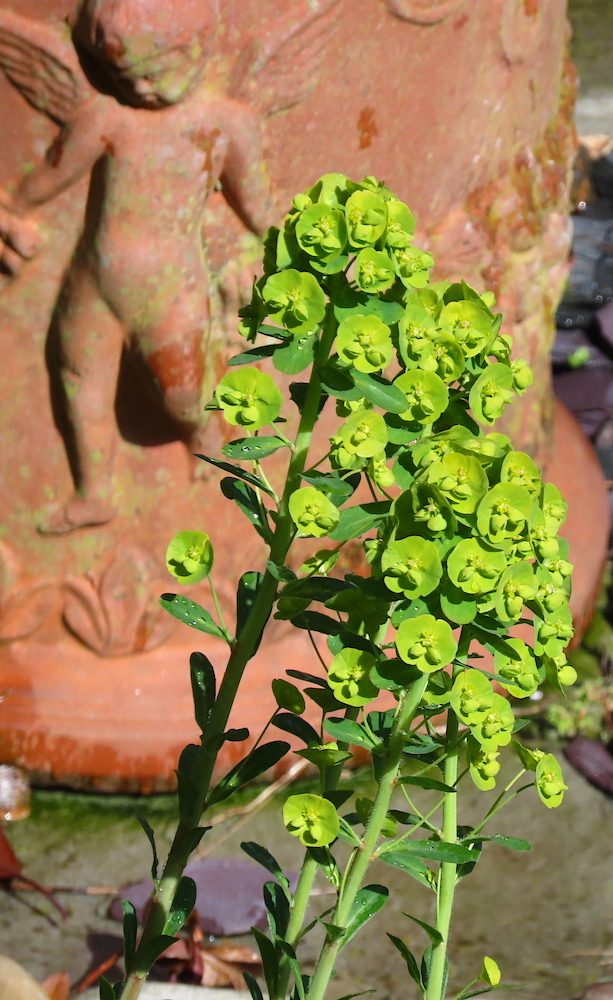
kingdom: Plantae
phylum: Tracheophyta
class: Magnoliopsida
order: Malpighiales
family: Euphorbiaceae
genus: Euphorbia
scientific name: Euphorbia amygdaloides
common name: Wood spurge
